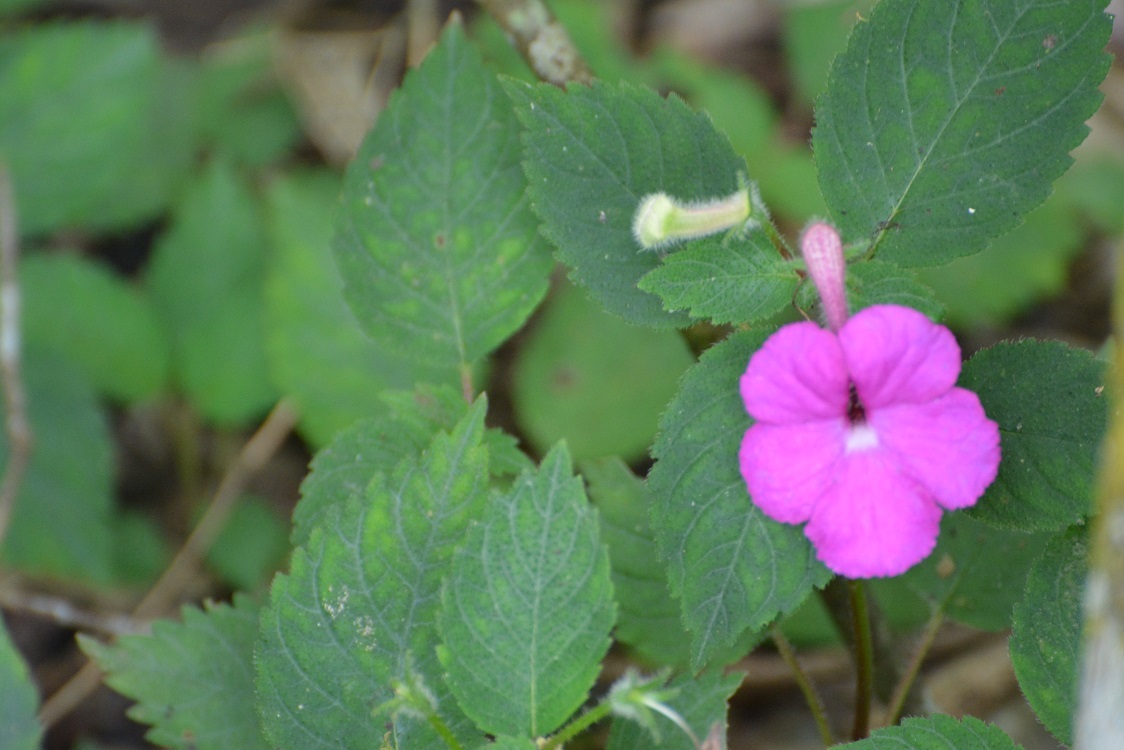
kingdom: Plantae
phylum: Tracheophyta
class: Magnoliopsida
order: Lamiales
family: Gesneriaceae
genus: Achimenes
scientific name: Achimenes grandiflora
